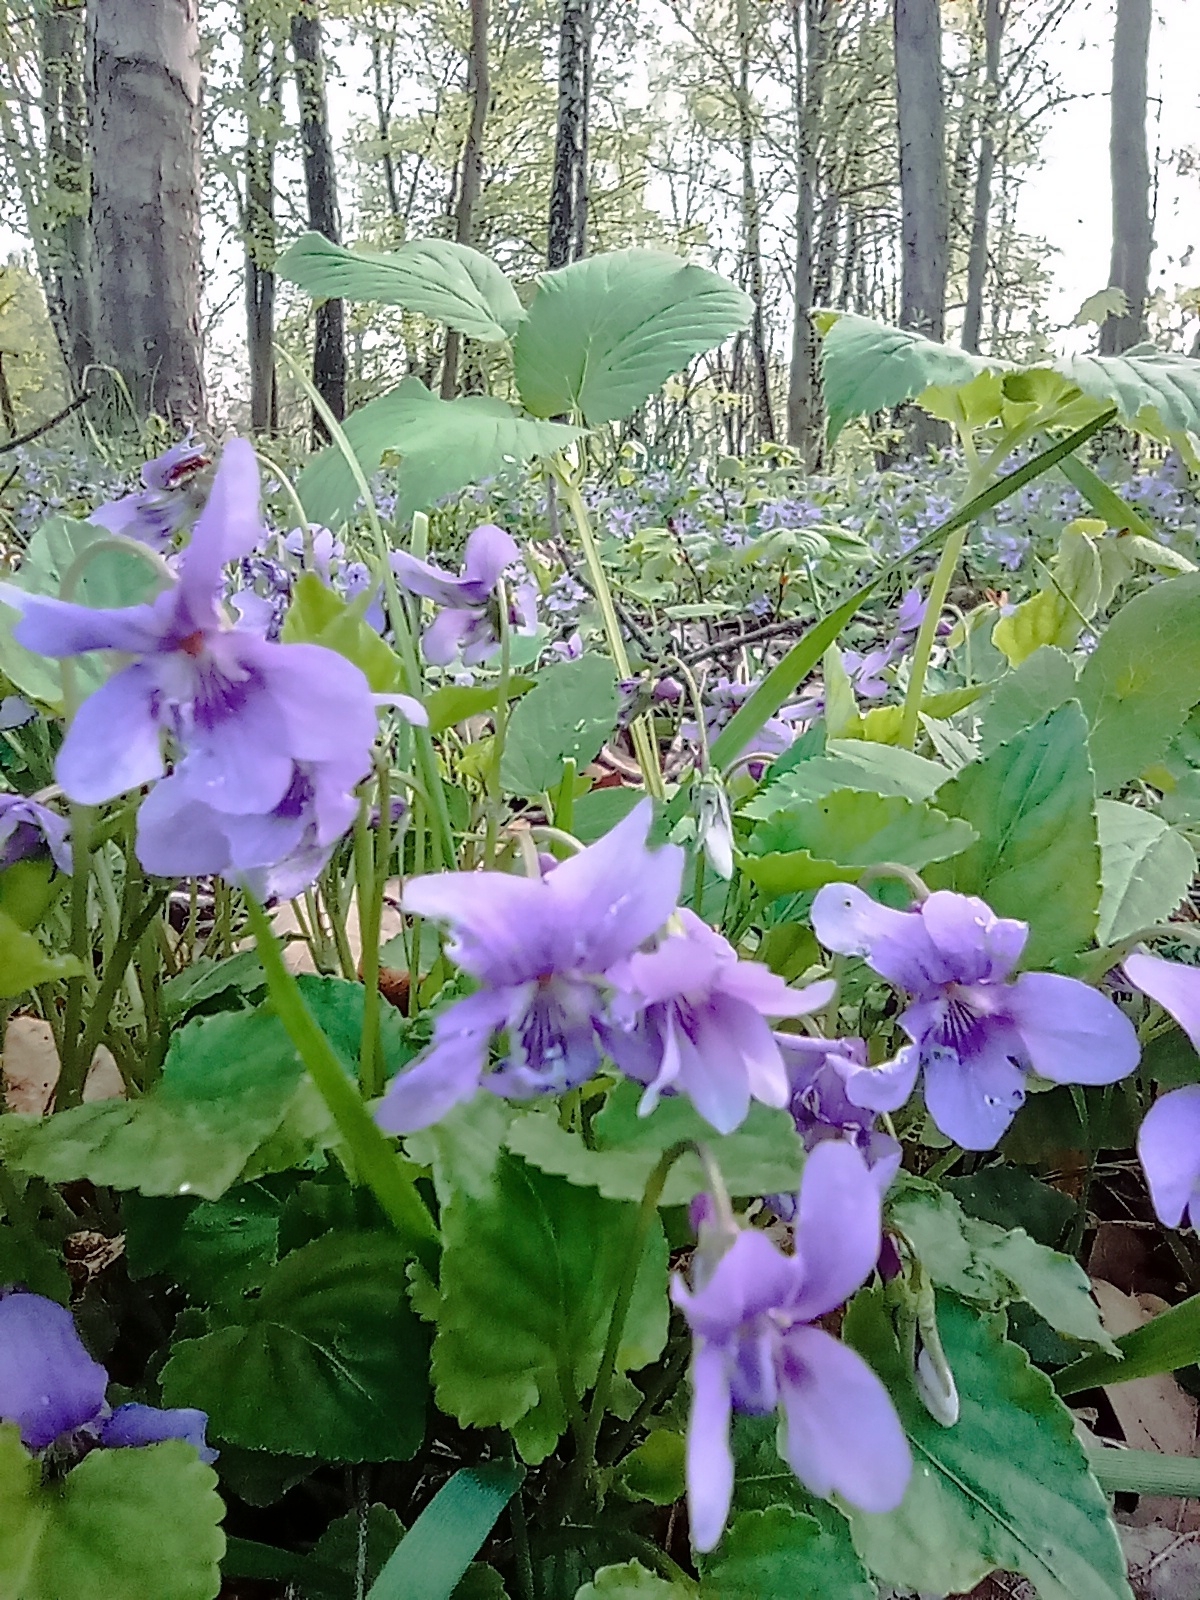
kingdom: Plantae
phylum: Tracheophyta
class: Magnoliopsida
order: Malpighiales
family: Violaceae
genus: Viola
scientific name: Viola reichenbachiana
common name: Early dog-violet
